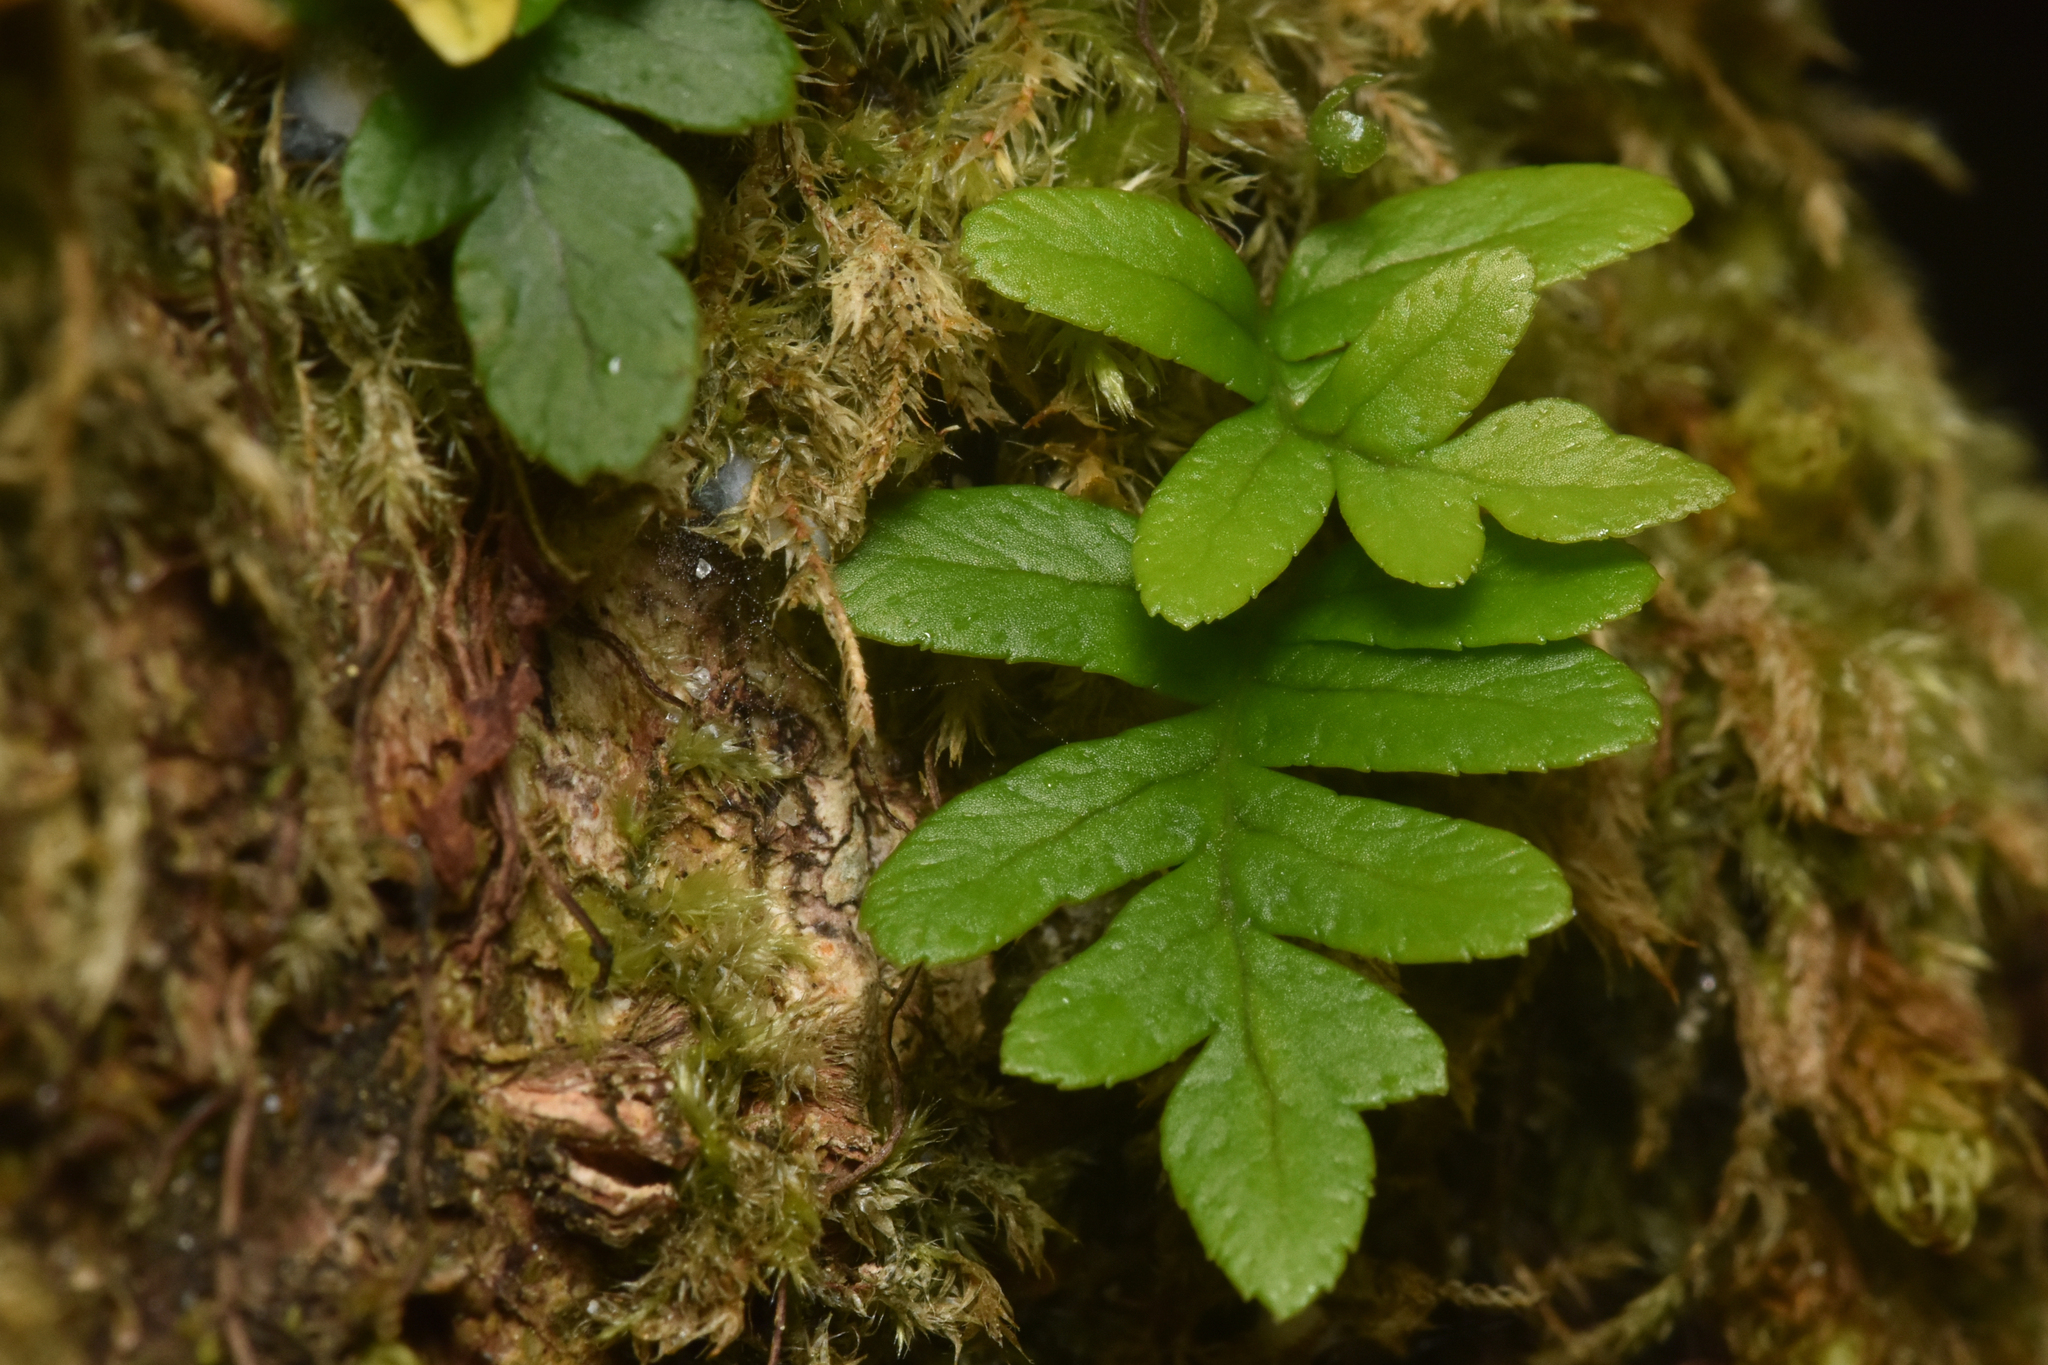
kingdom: Plantae
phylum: Tracheophyta
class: Polypodiopsida
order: Polypodiales
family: Polypodiaceae
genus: Polypodium
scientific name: Polypodium glycyrrhiza
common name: Licorice fern
